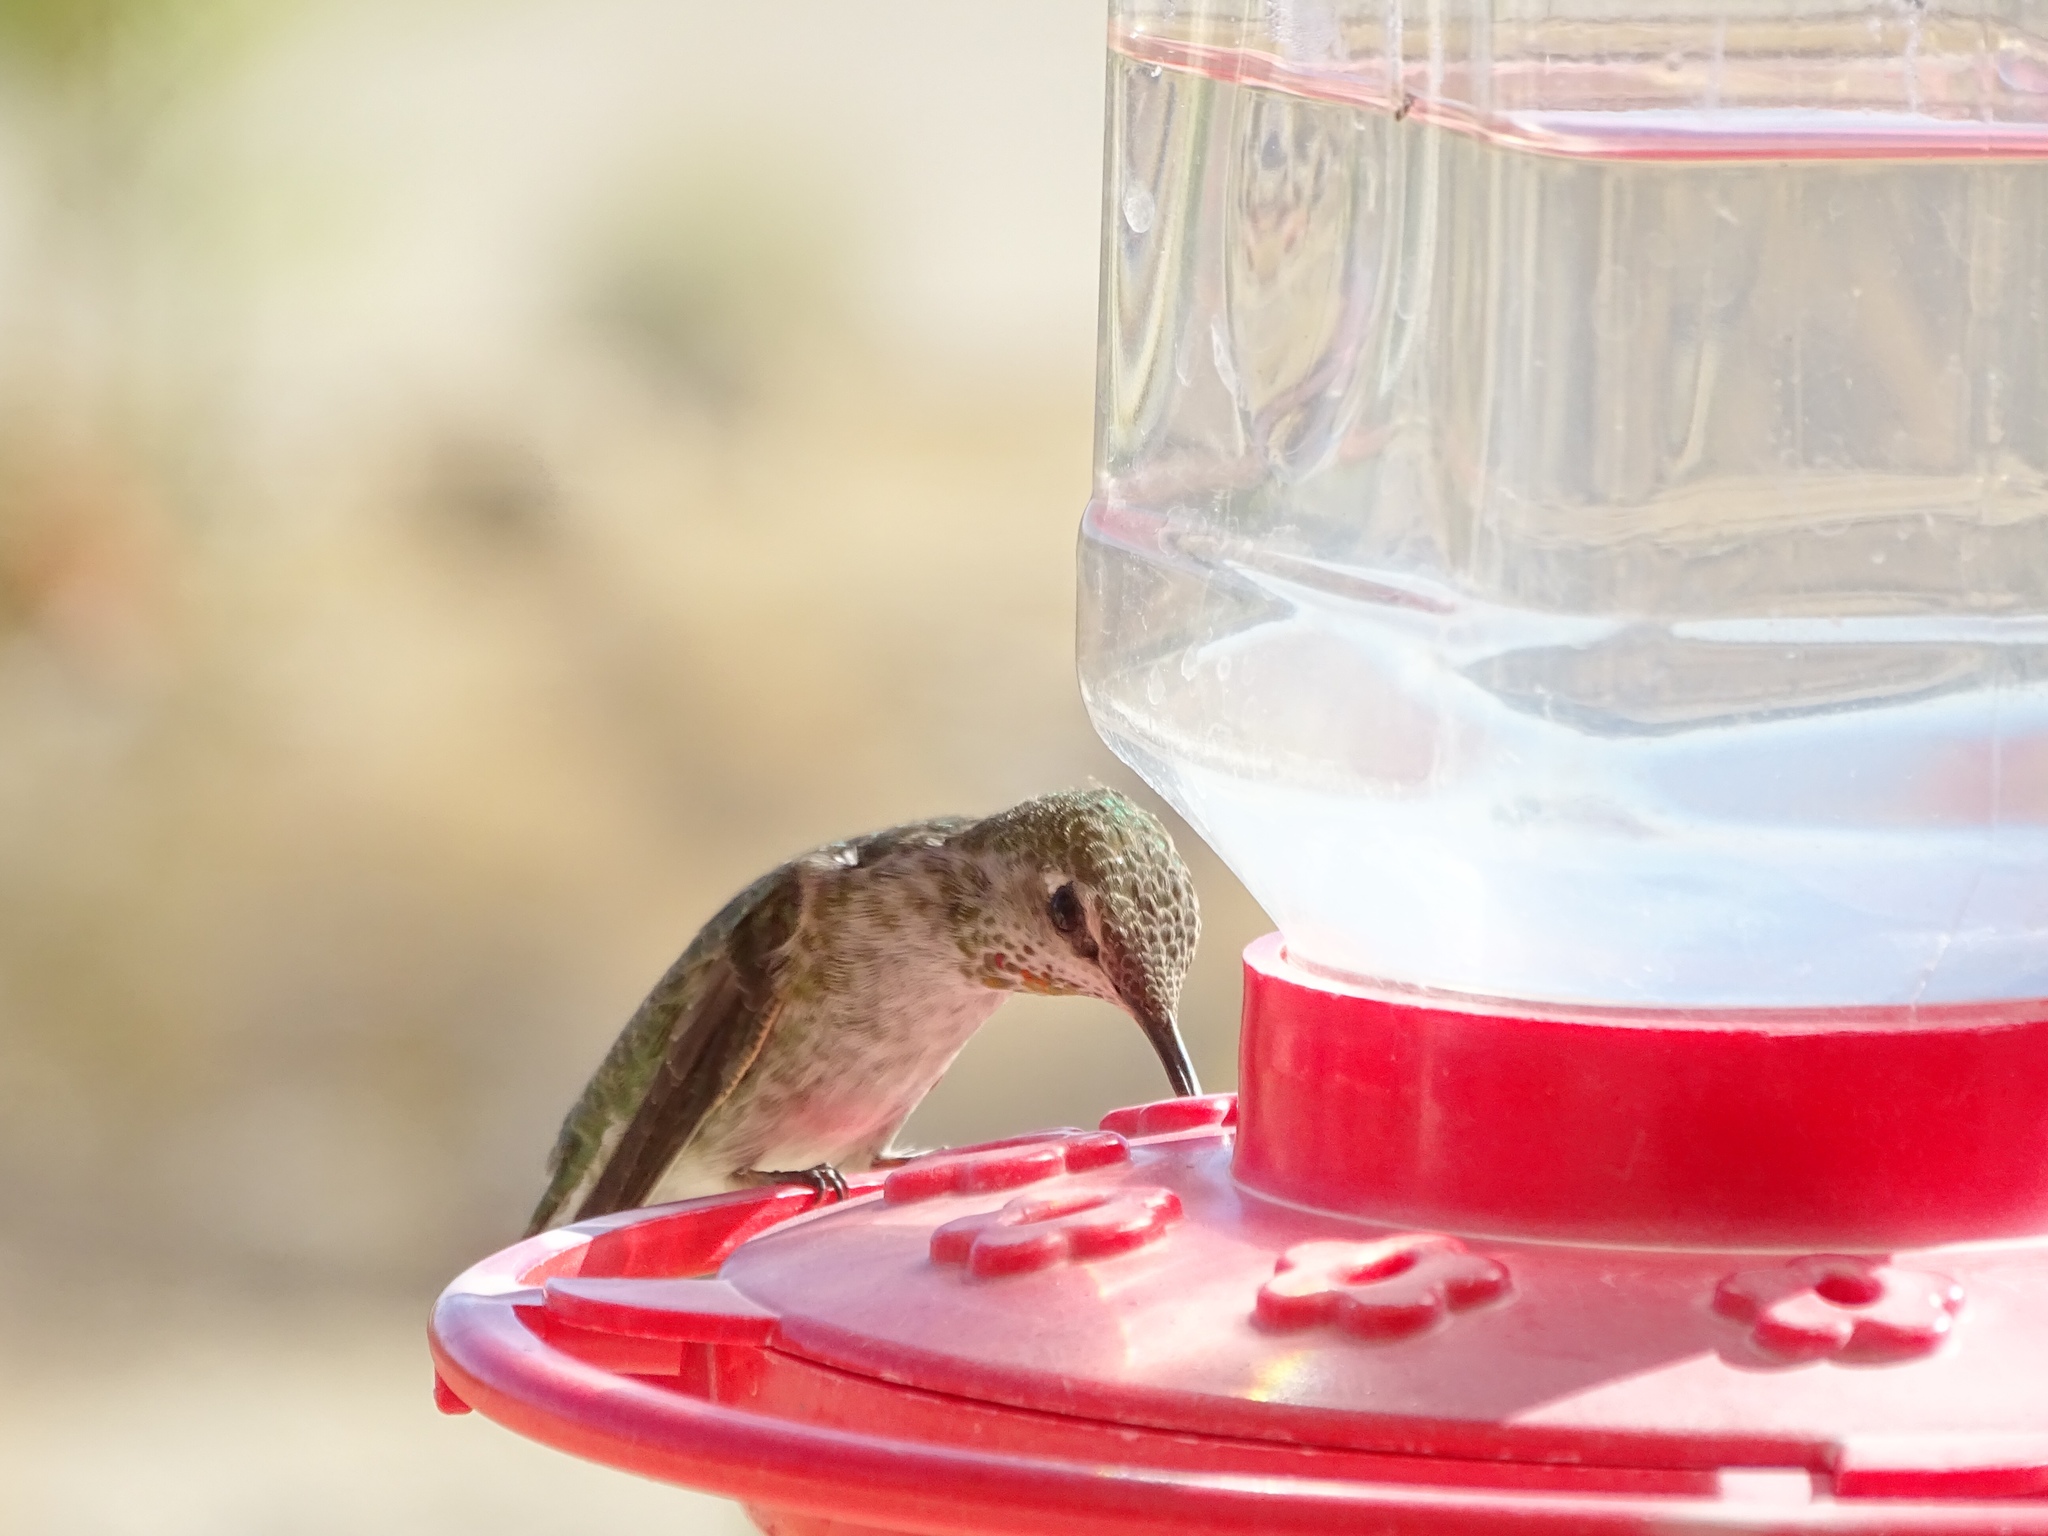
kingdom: Animalia
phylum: Chordata
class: Aves
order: Apodiformes
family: Trochilidae
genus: Calypte
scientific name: Calypte anna
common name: Anna's hummingbird
